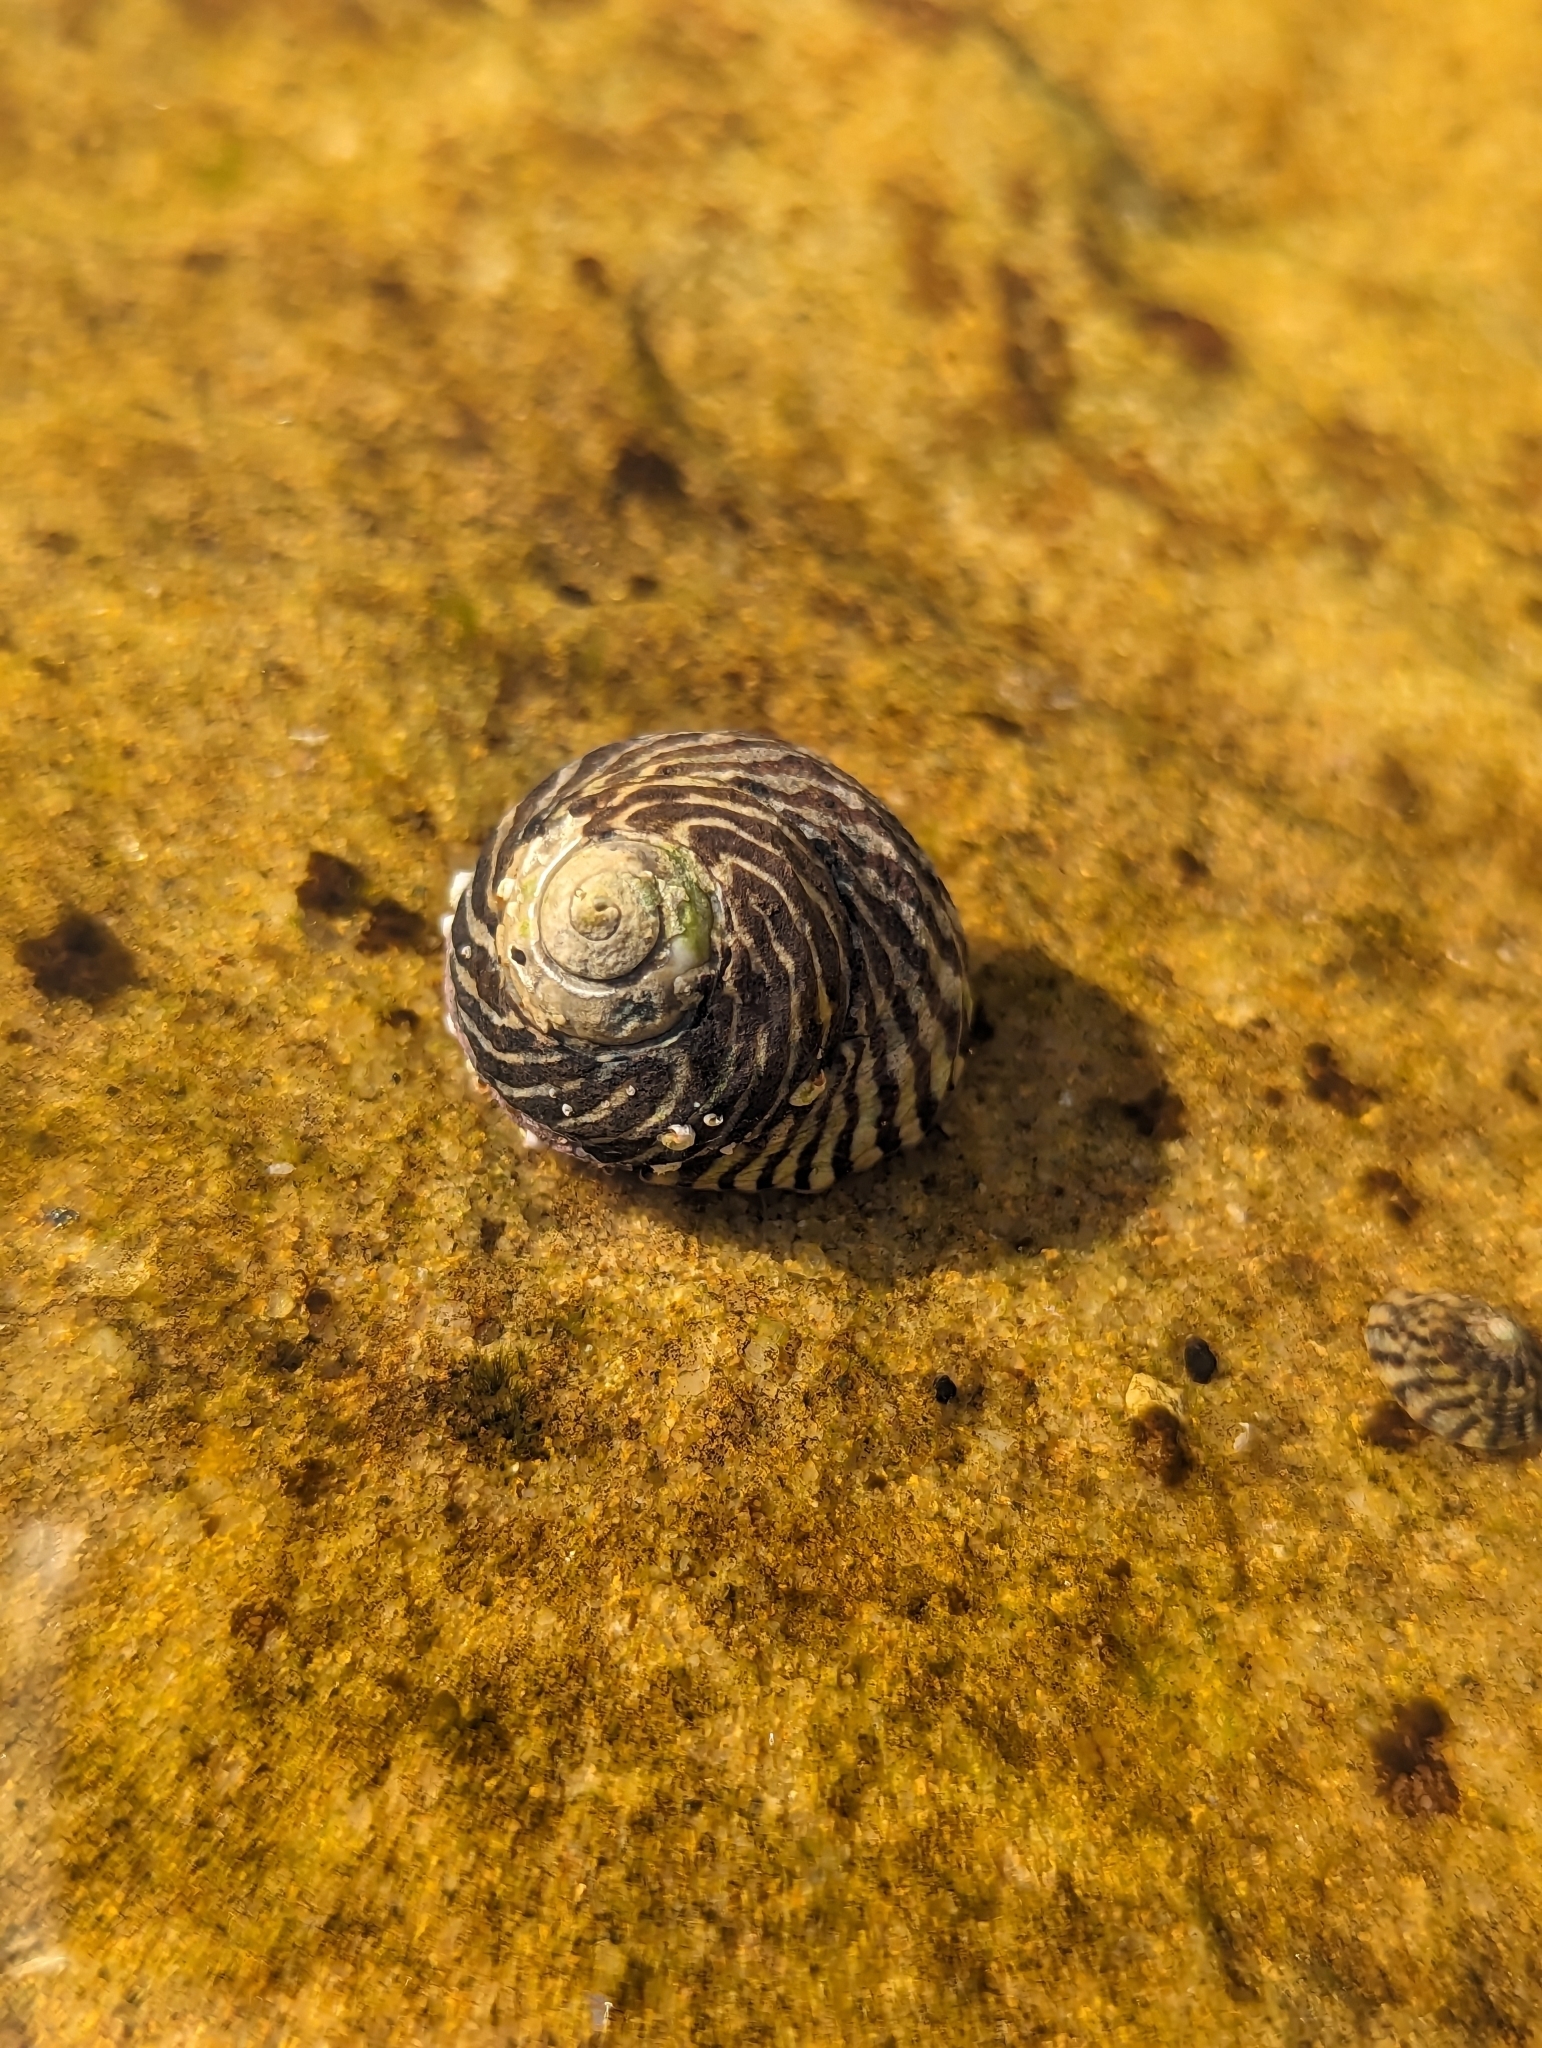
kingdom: Animalia
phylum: Mollusca
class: Gastropoda
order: Trochida
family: Trochidae
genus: Austrocochlea
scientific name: Austrocochlea porcata
